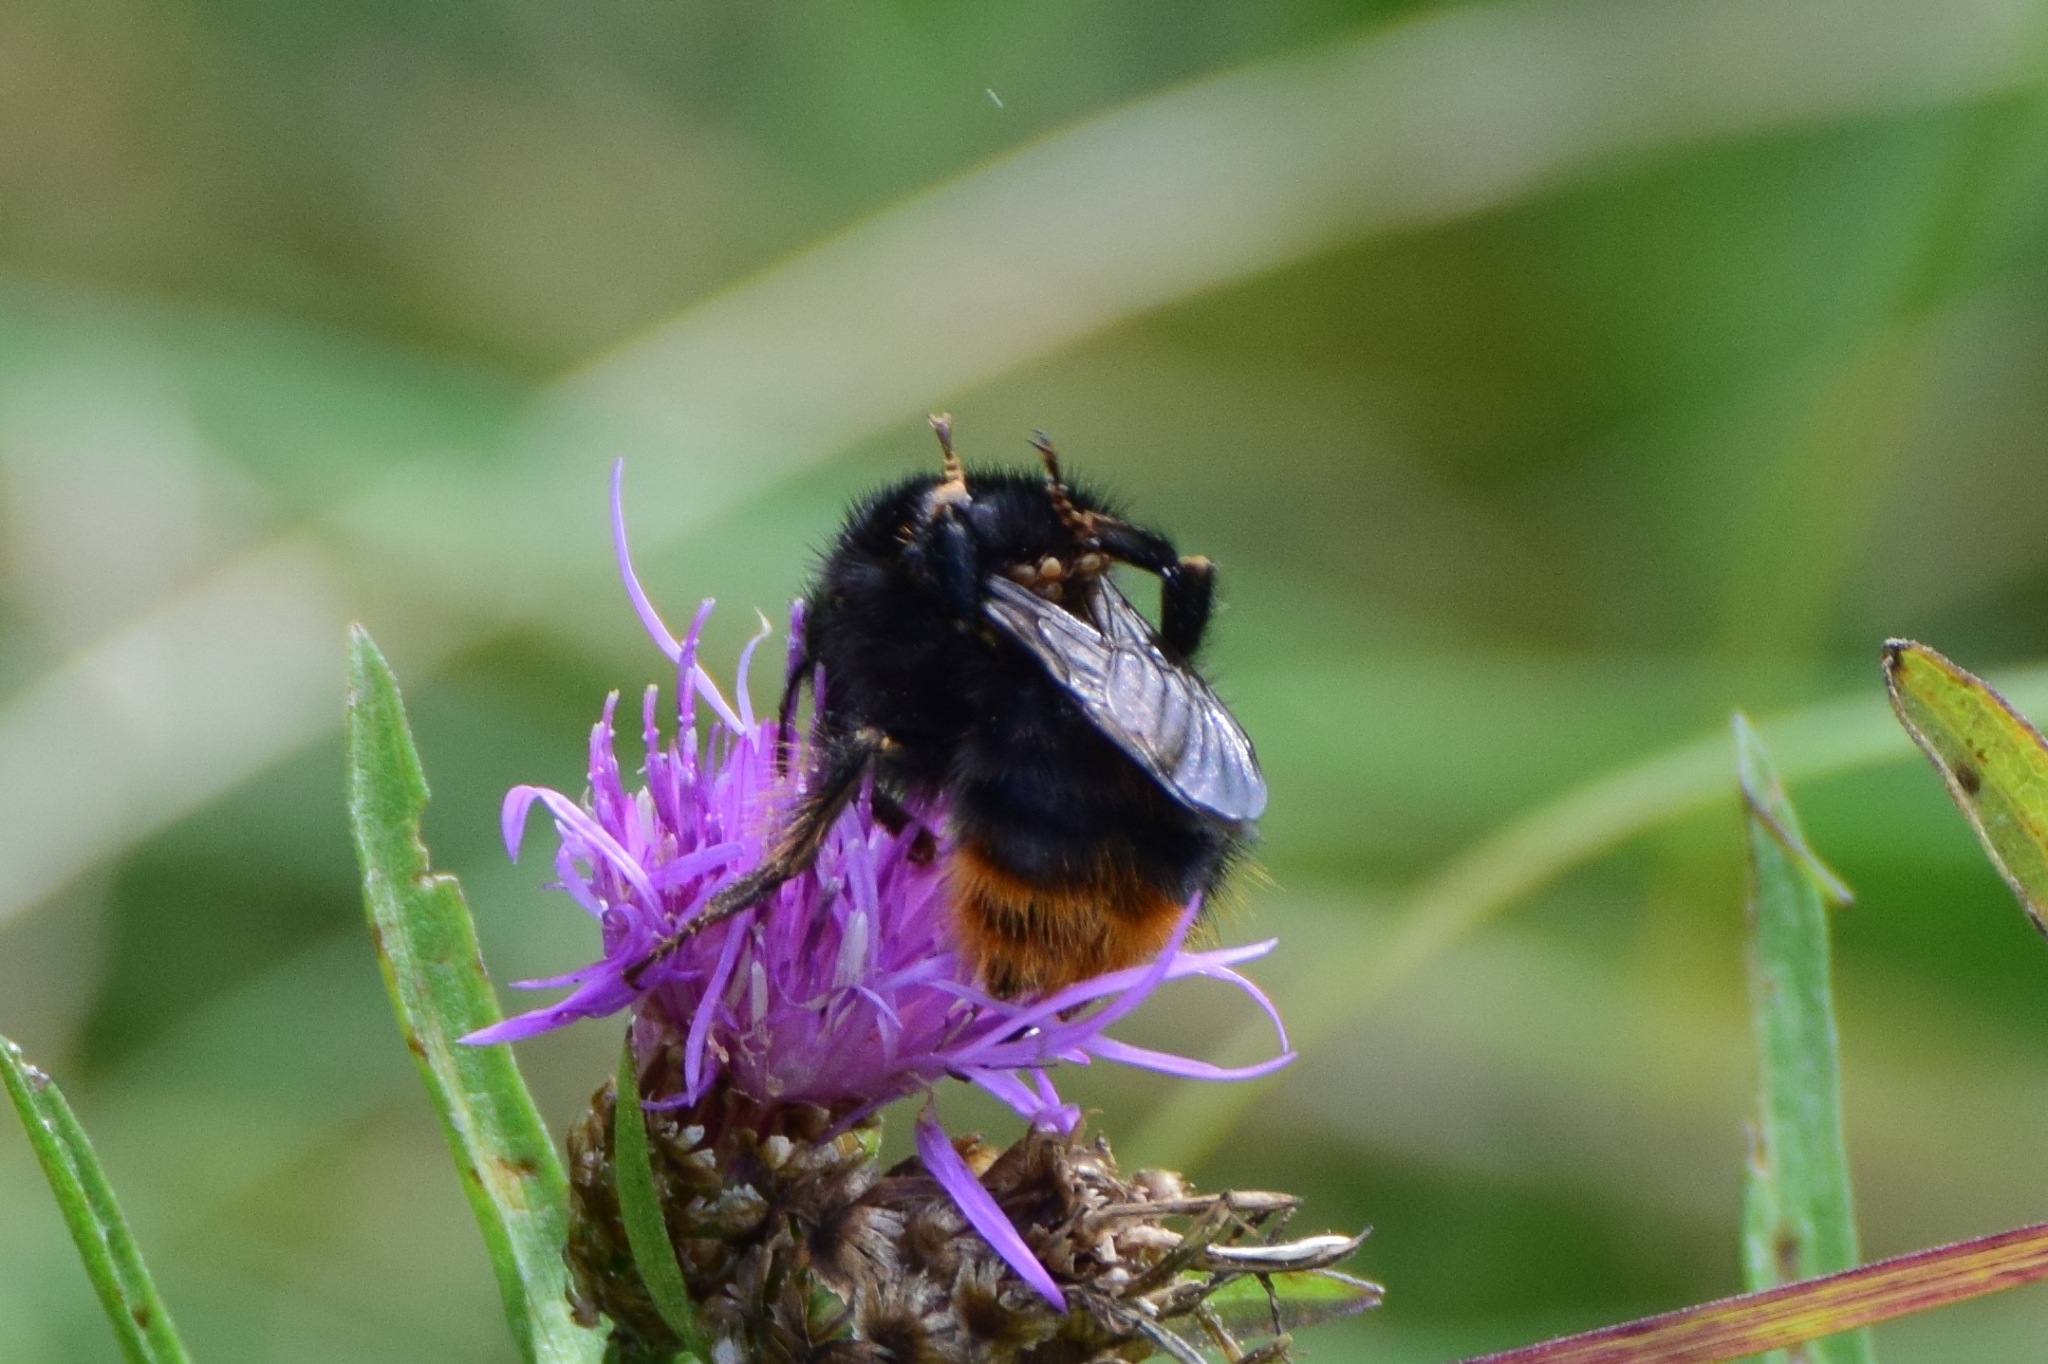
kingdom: Animalia
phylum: Arthropoda
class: Insecta
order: Hymenoptera
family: Apidae
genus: Bombus
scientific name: Bombus ruderarius
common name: Red-shanked carder-bee
